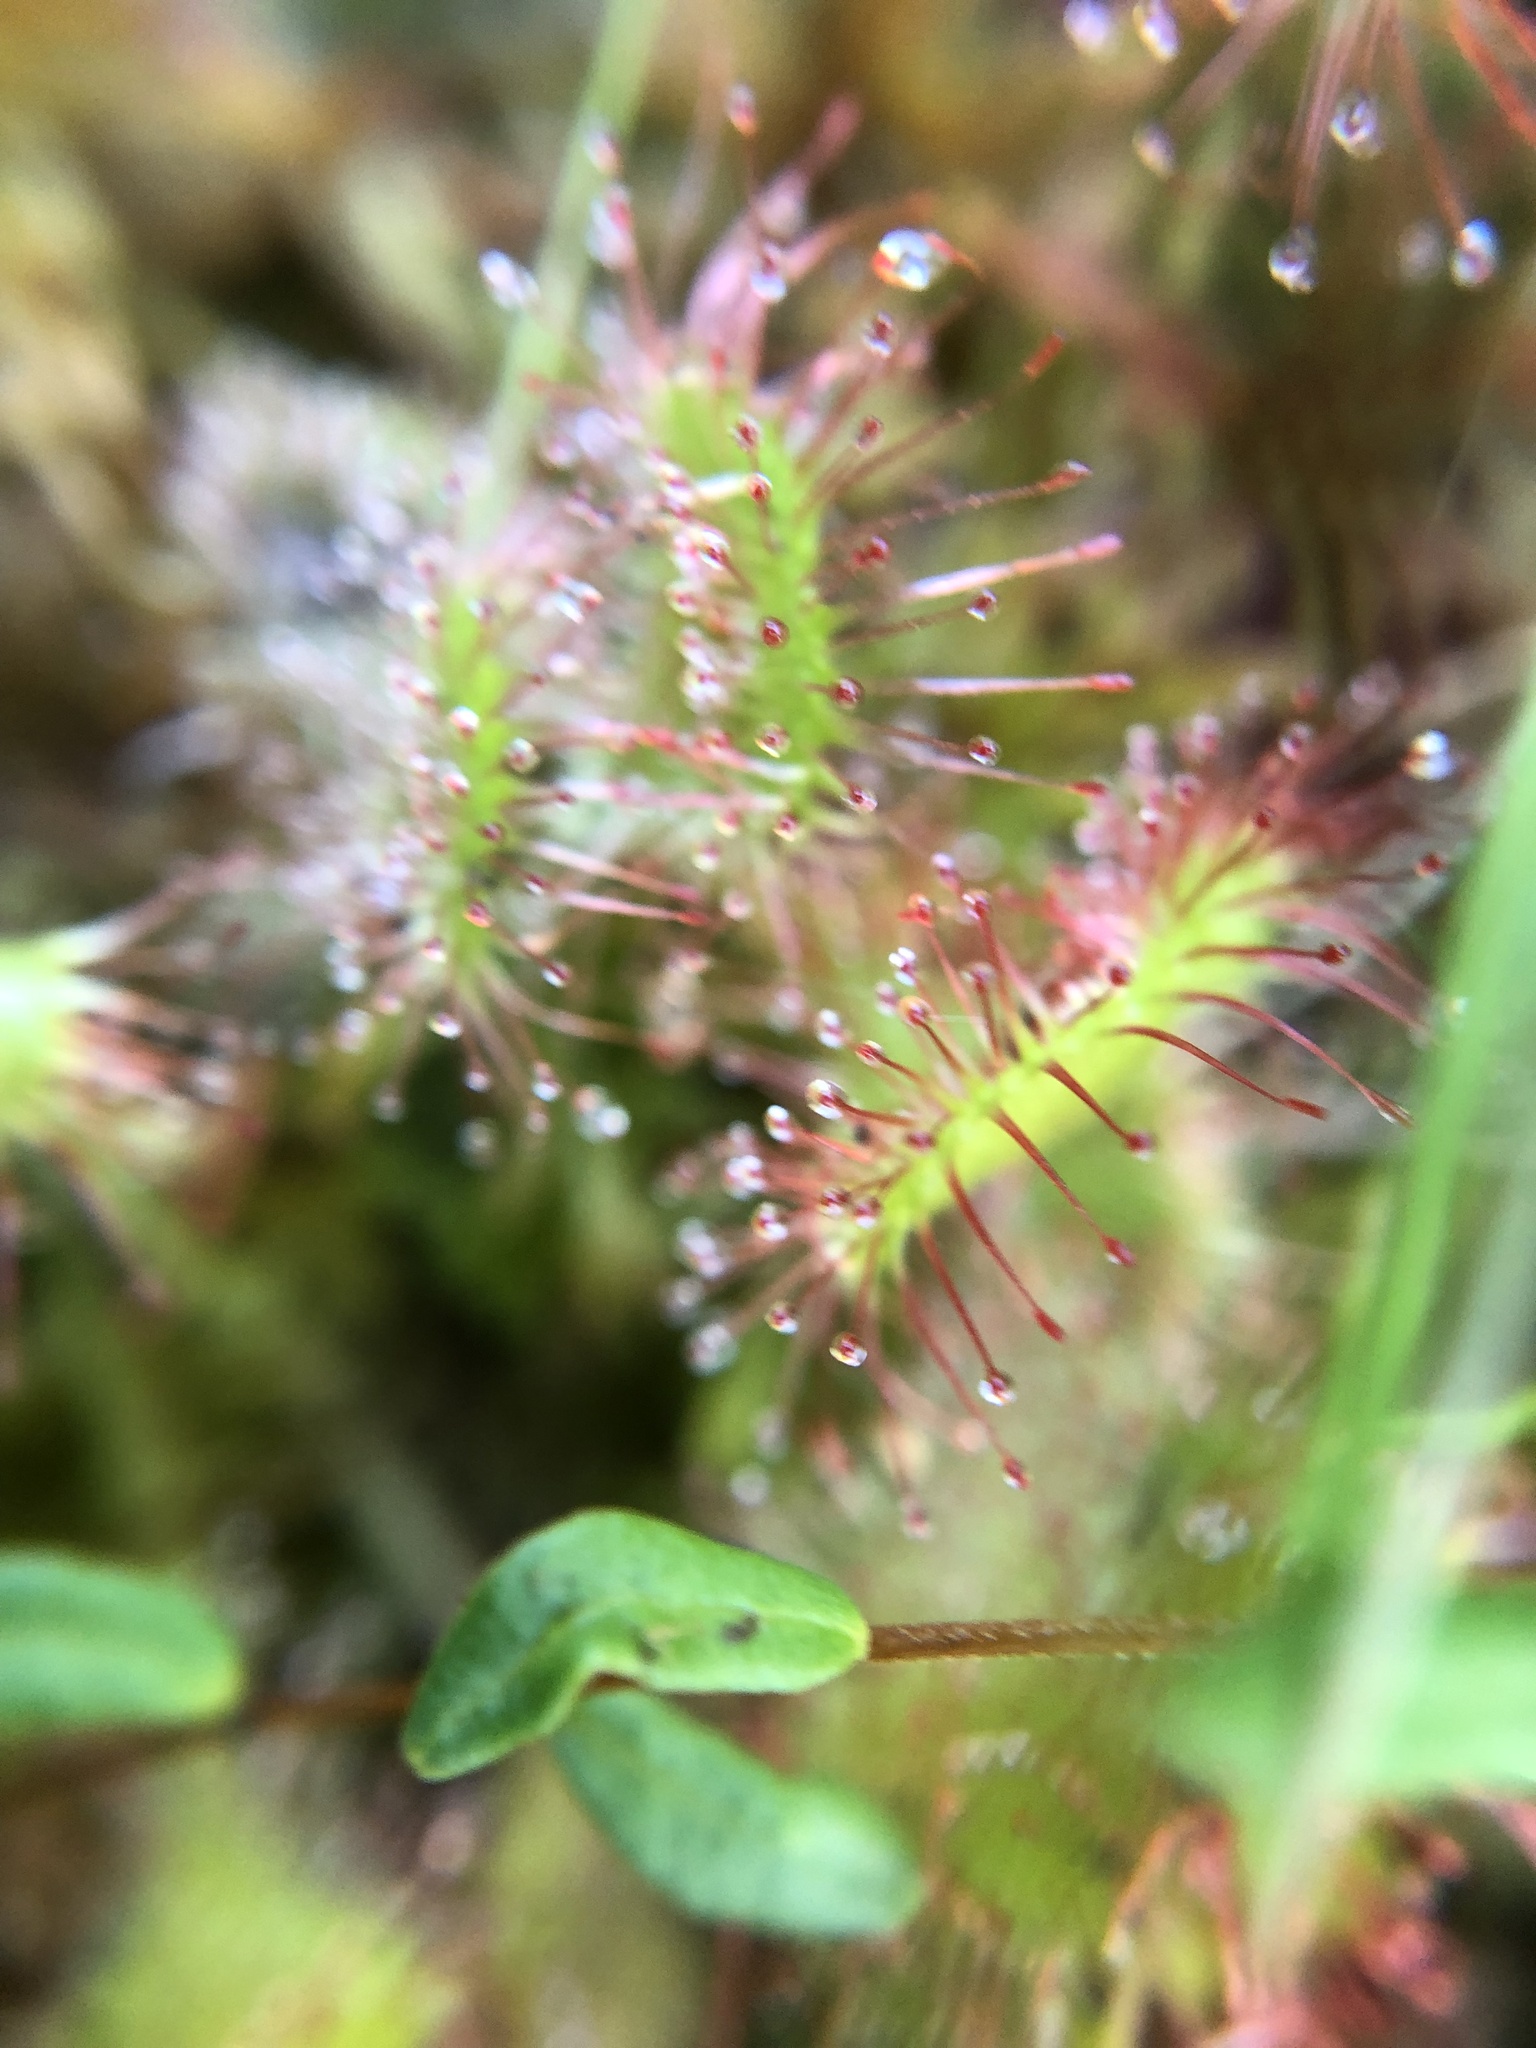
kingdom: Plantae
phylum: Tracheophyta
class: Magnoliopsida
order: Caryophyllales
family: Droseraceae
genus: Drosera
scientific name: Drosera rotundifolia
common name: Round-leaved sundew
